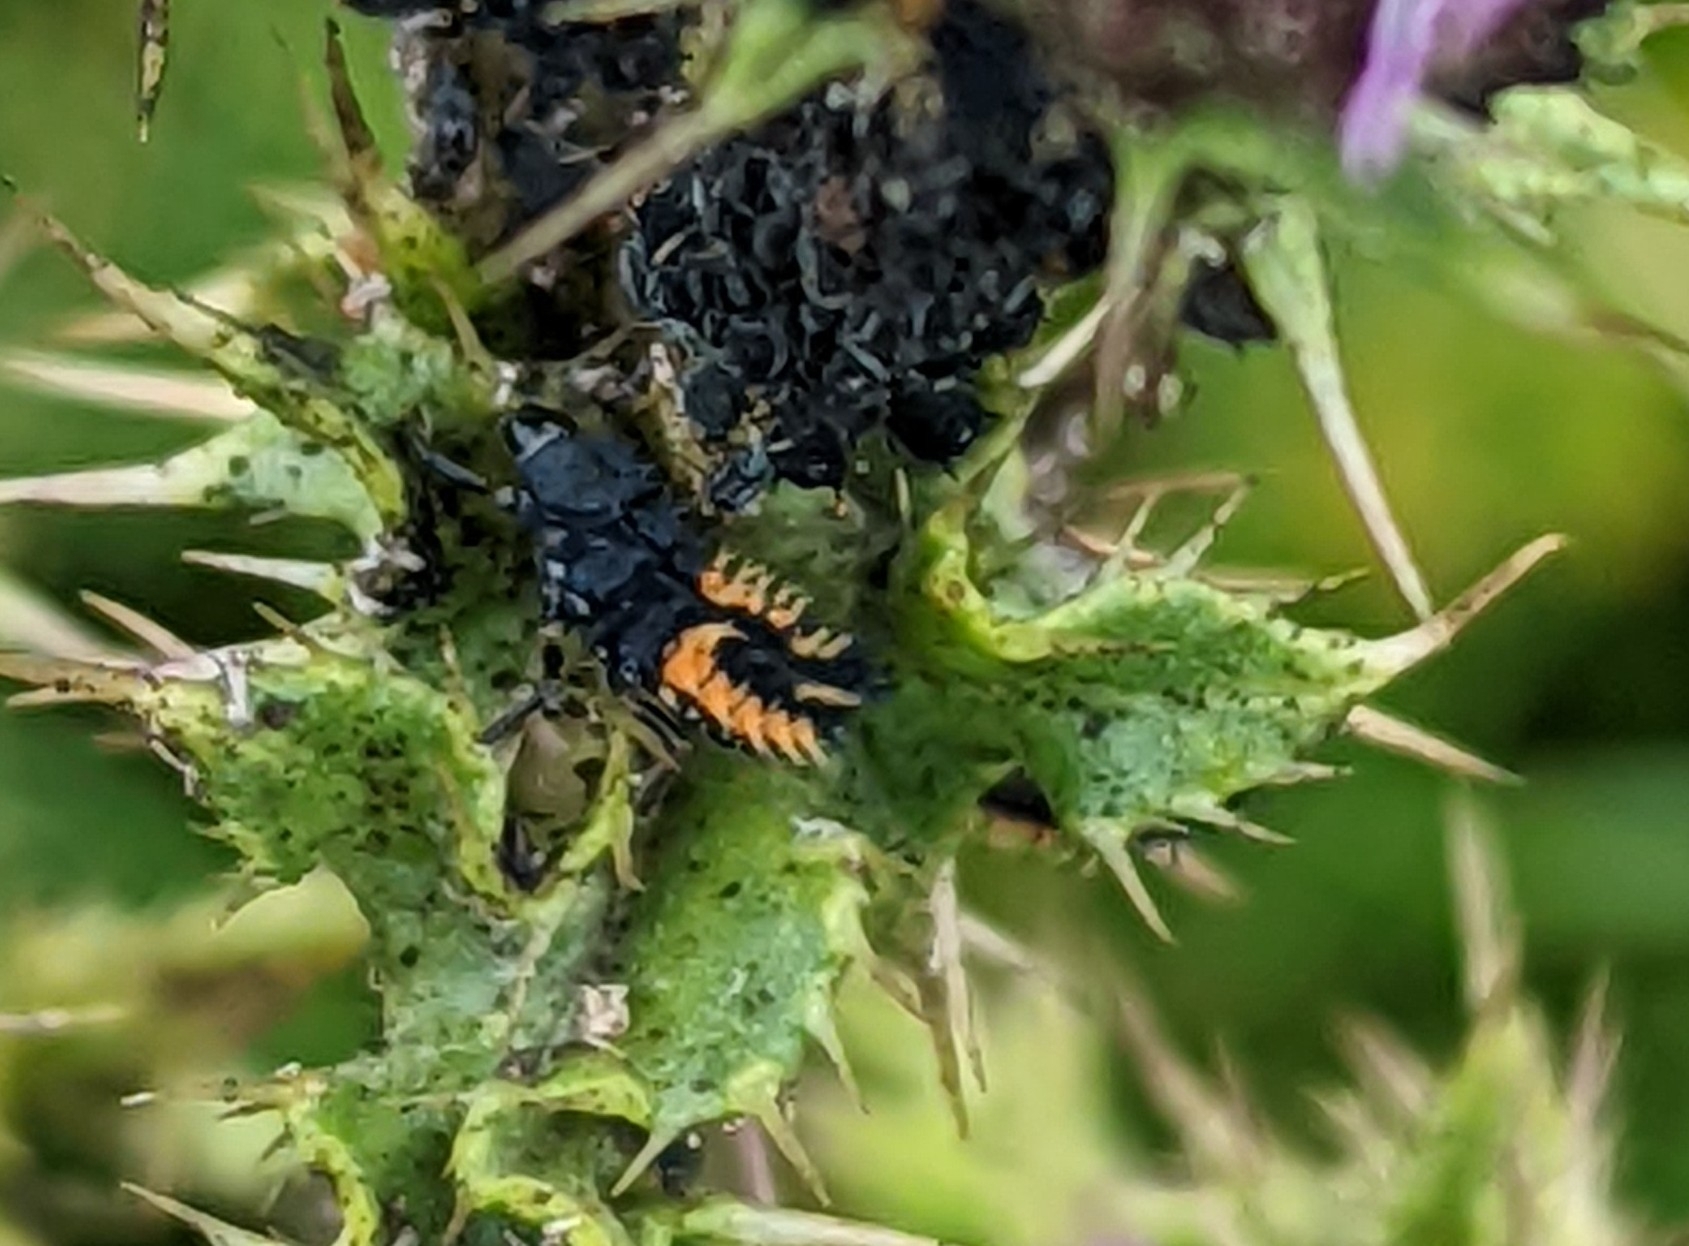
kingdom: Animalia
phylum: Arthropoda
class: Insecta
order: Coleoptera
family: Coccinellidae
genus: Harmonia
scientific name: Harmonia axyridis
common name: Harlequin ladybird
